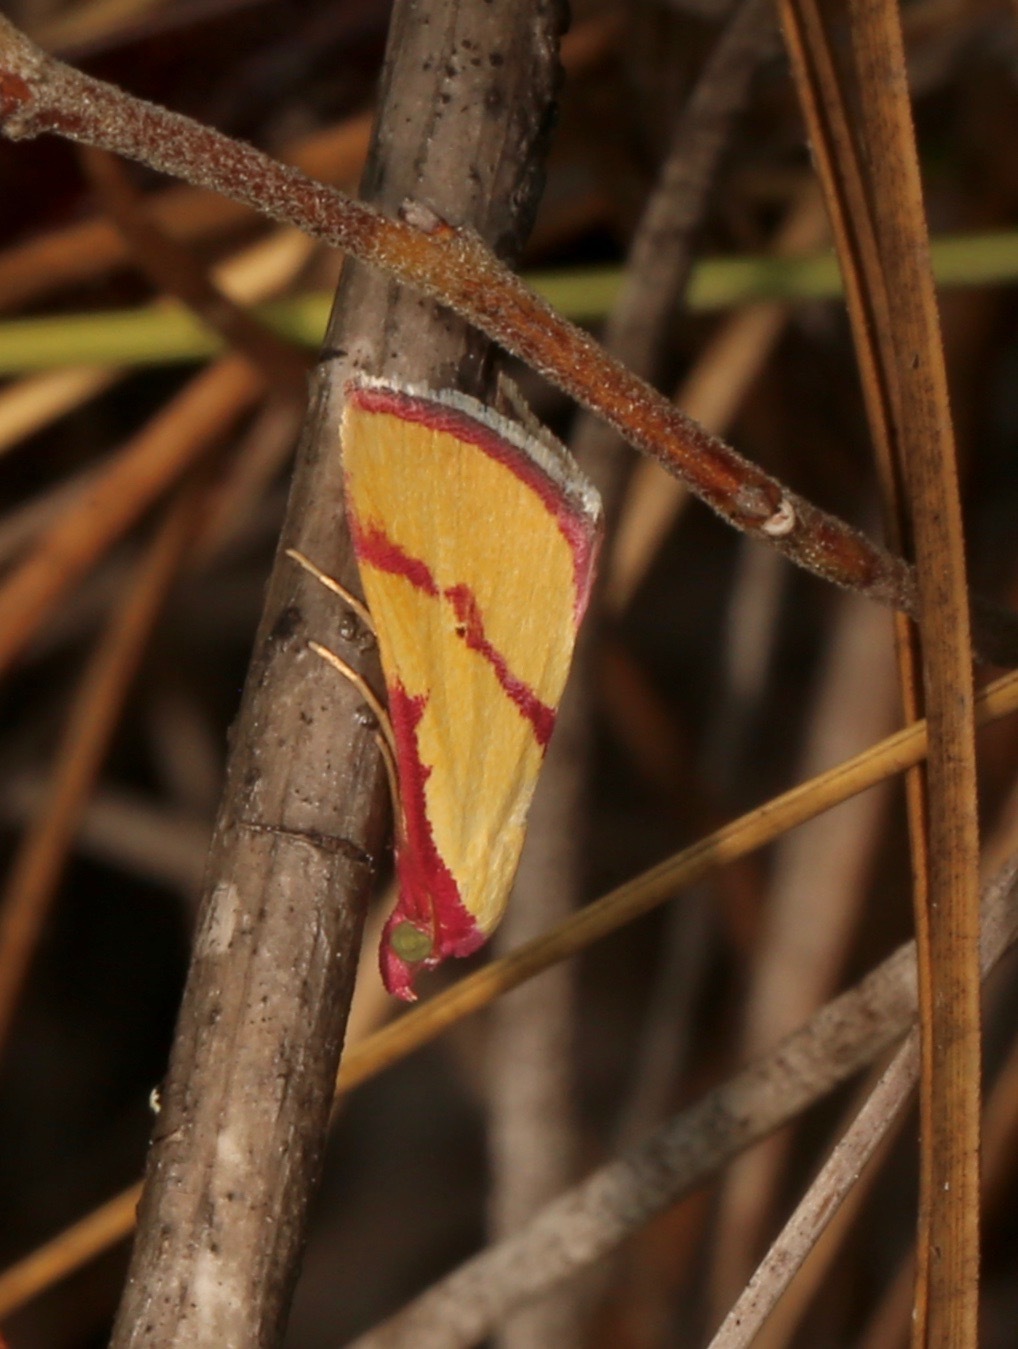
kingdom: Animalia
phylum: Arthropoda
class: Insecta
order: Lepidoptera
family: Erebidae
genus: Phytometra
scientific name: Phytometra ernestinana
